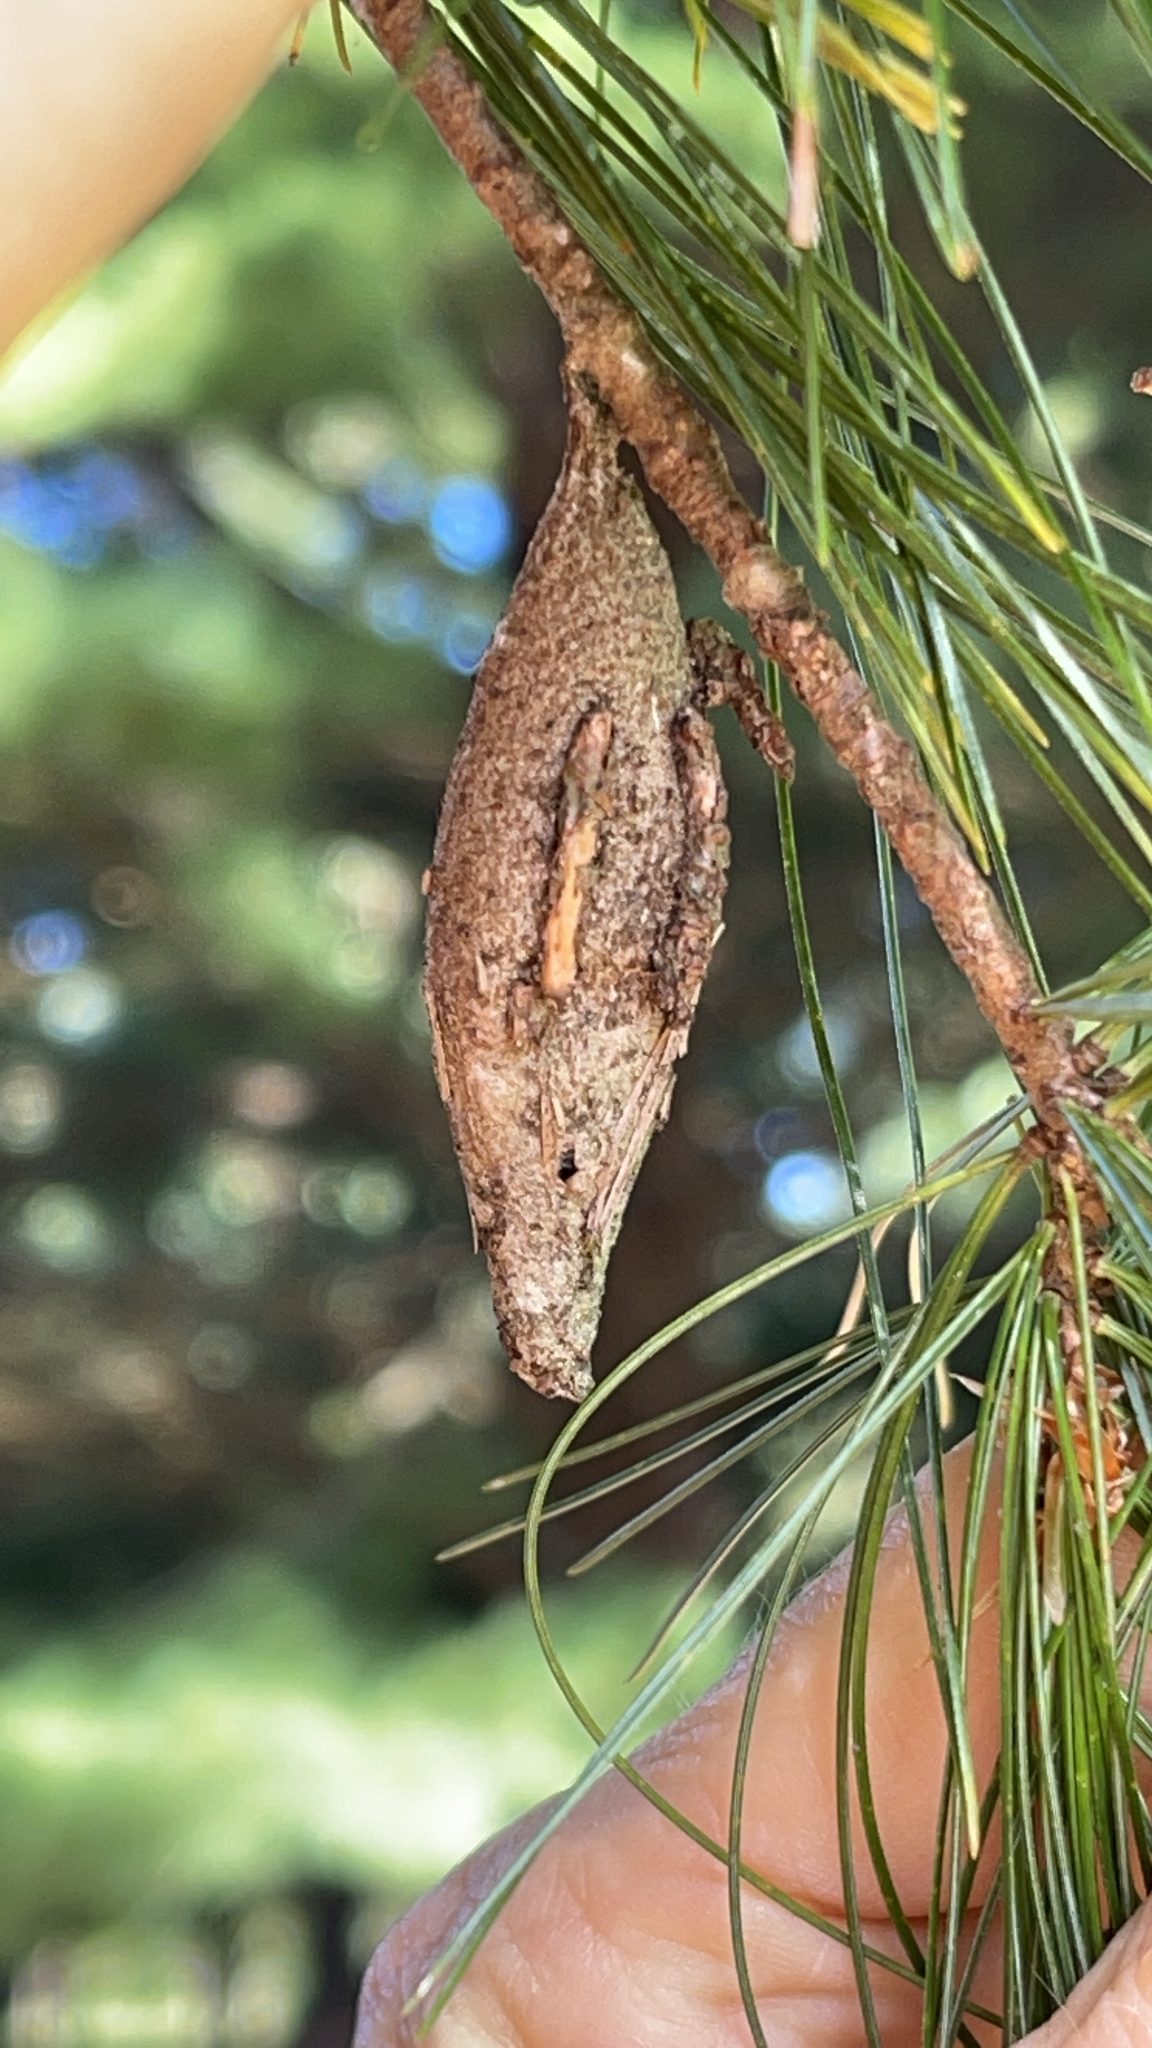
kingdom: Animalia
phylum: Arthropoda
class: Insecta
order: Lepidoptera
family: Psychidae
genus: Thyridopteryx
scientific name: Thyridopteryx ephemeraeformis
